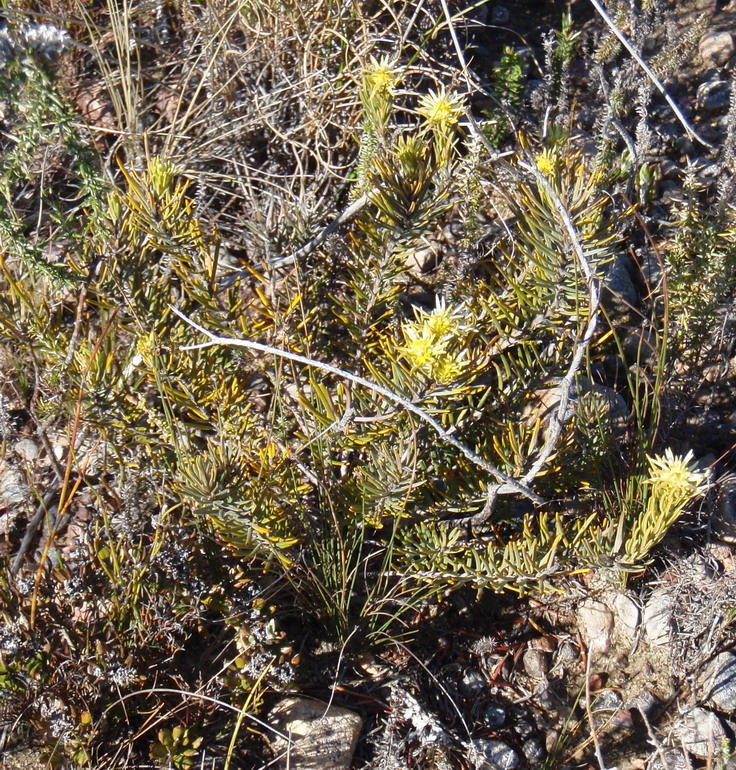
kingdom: Plantae
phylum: Tracheophyta
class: Magnoliopsida
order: Rosales
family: Rhamnaceae
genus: Phylica
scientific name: Phylica velutina
